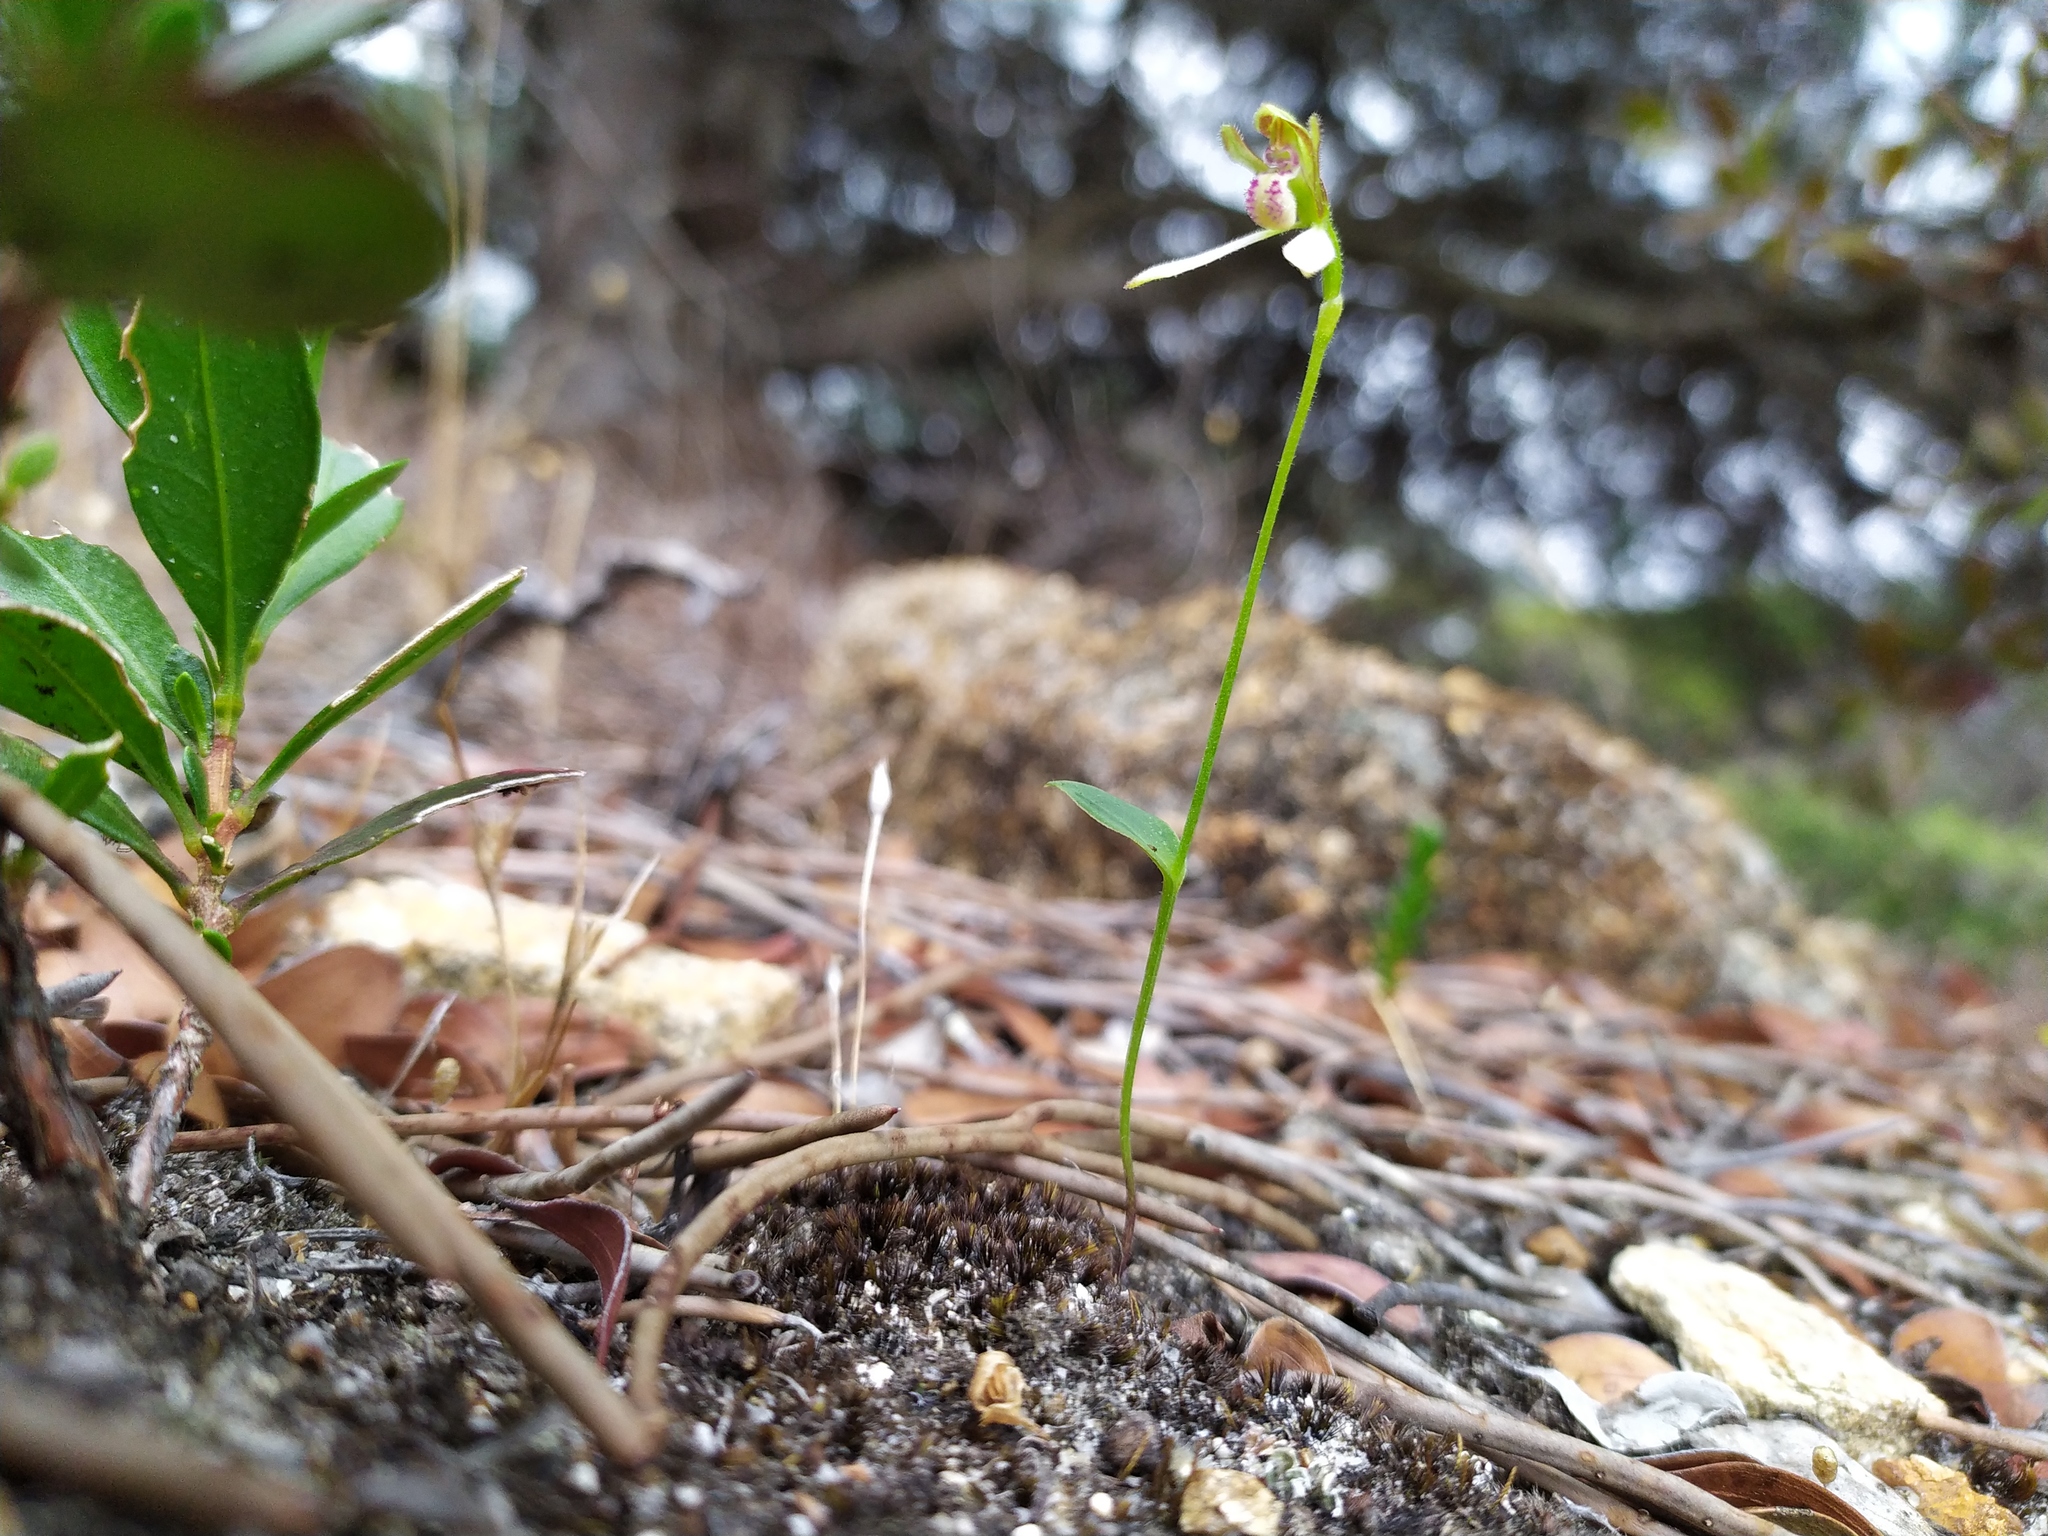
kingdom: Plantae
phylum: Tracheophyta
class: Liliopsida
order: Asparagales
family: Orchidaceae
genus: Eriochilus
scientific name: Eriochilus pulchellus
